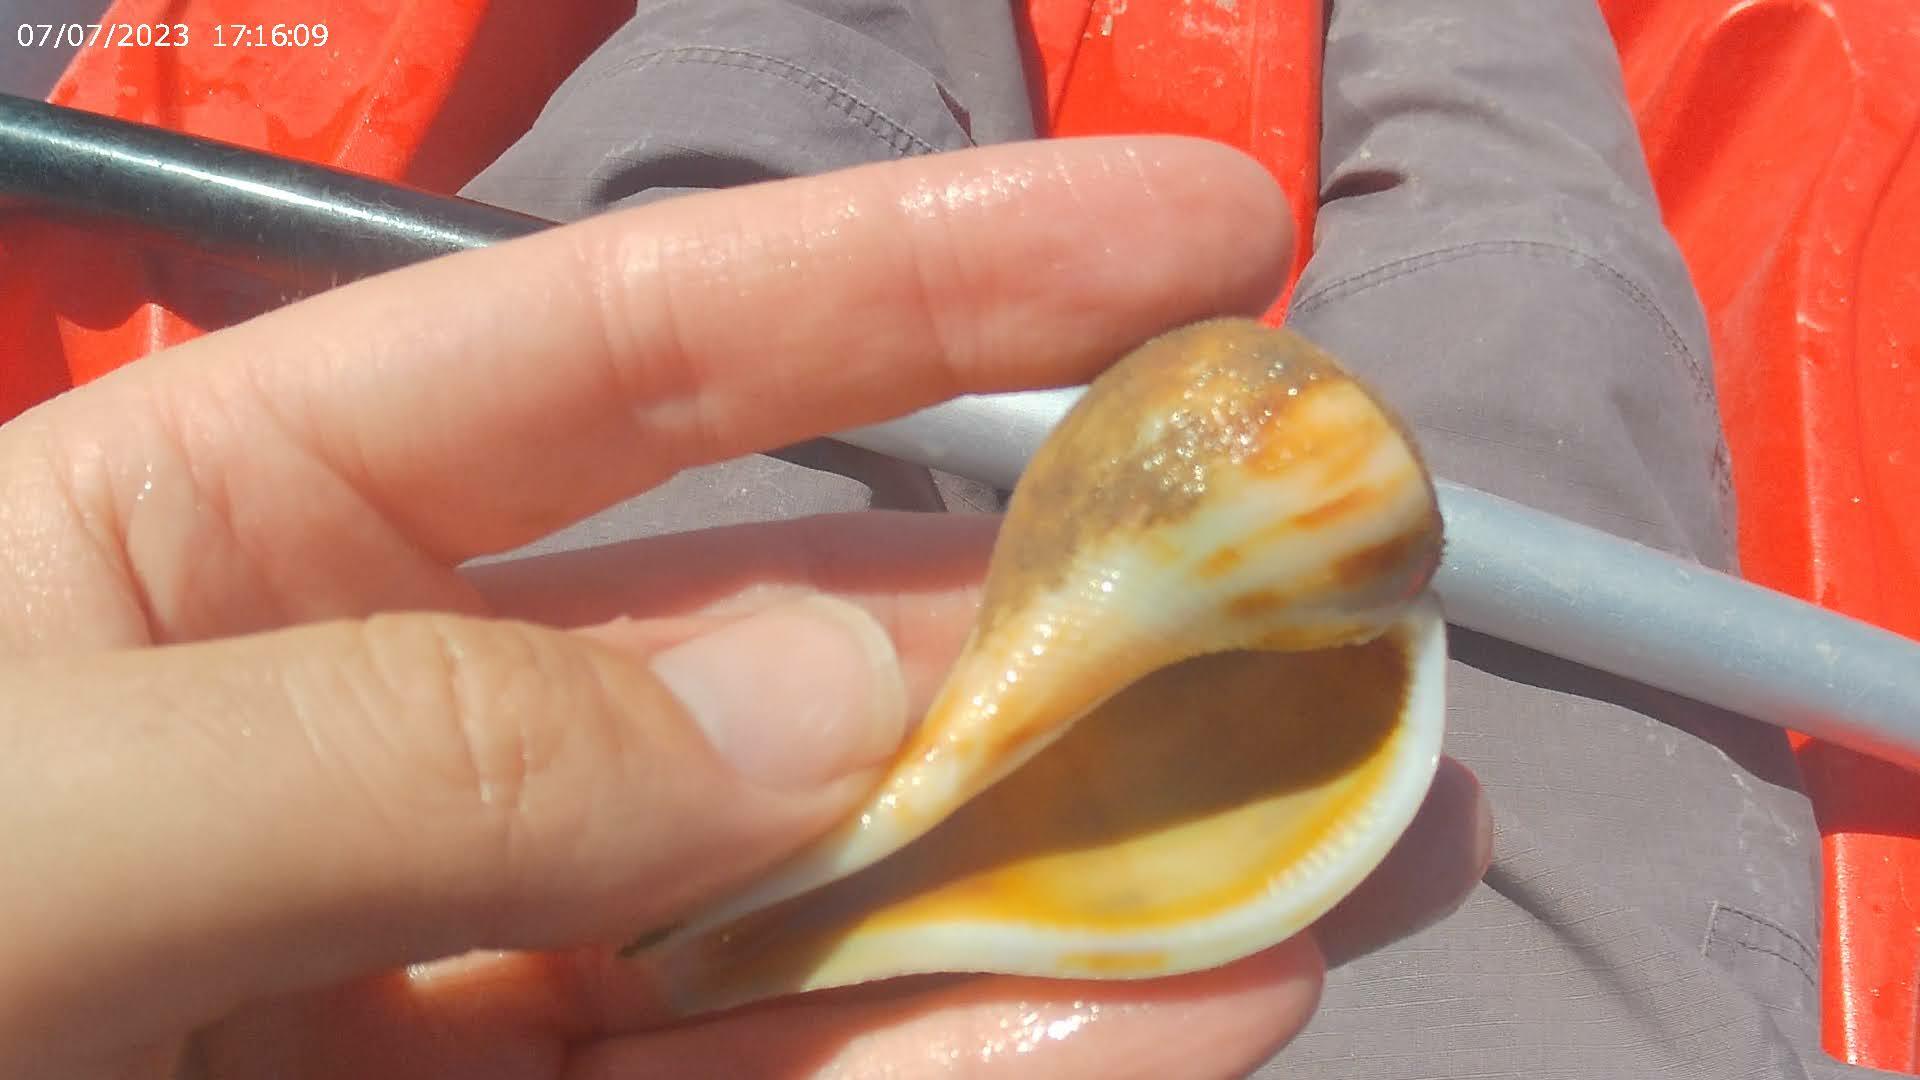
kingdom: Animalia
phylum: Mollusca
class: Gastropoda
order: Neogastropoda
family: Busyconidae
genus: Fulguropsis
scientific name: Fulguropsis pyruloides
